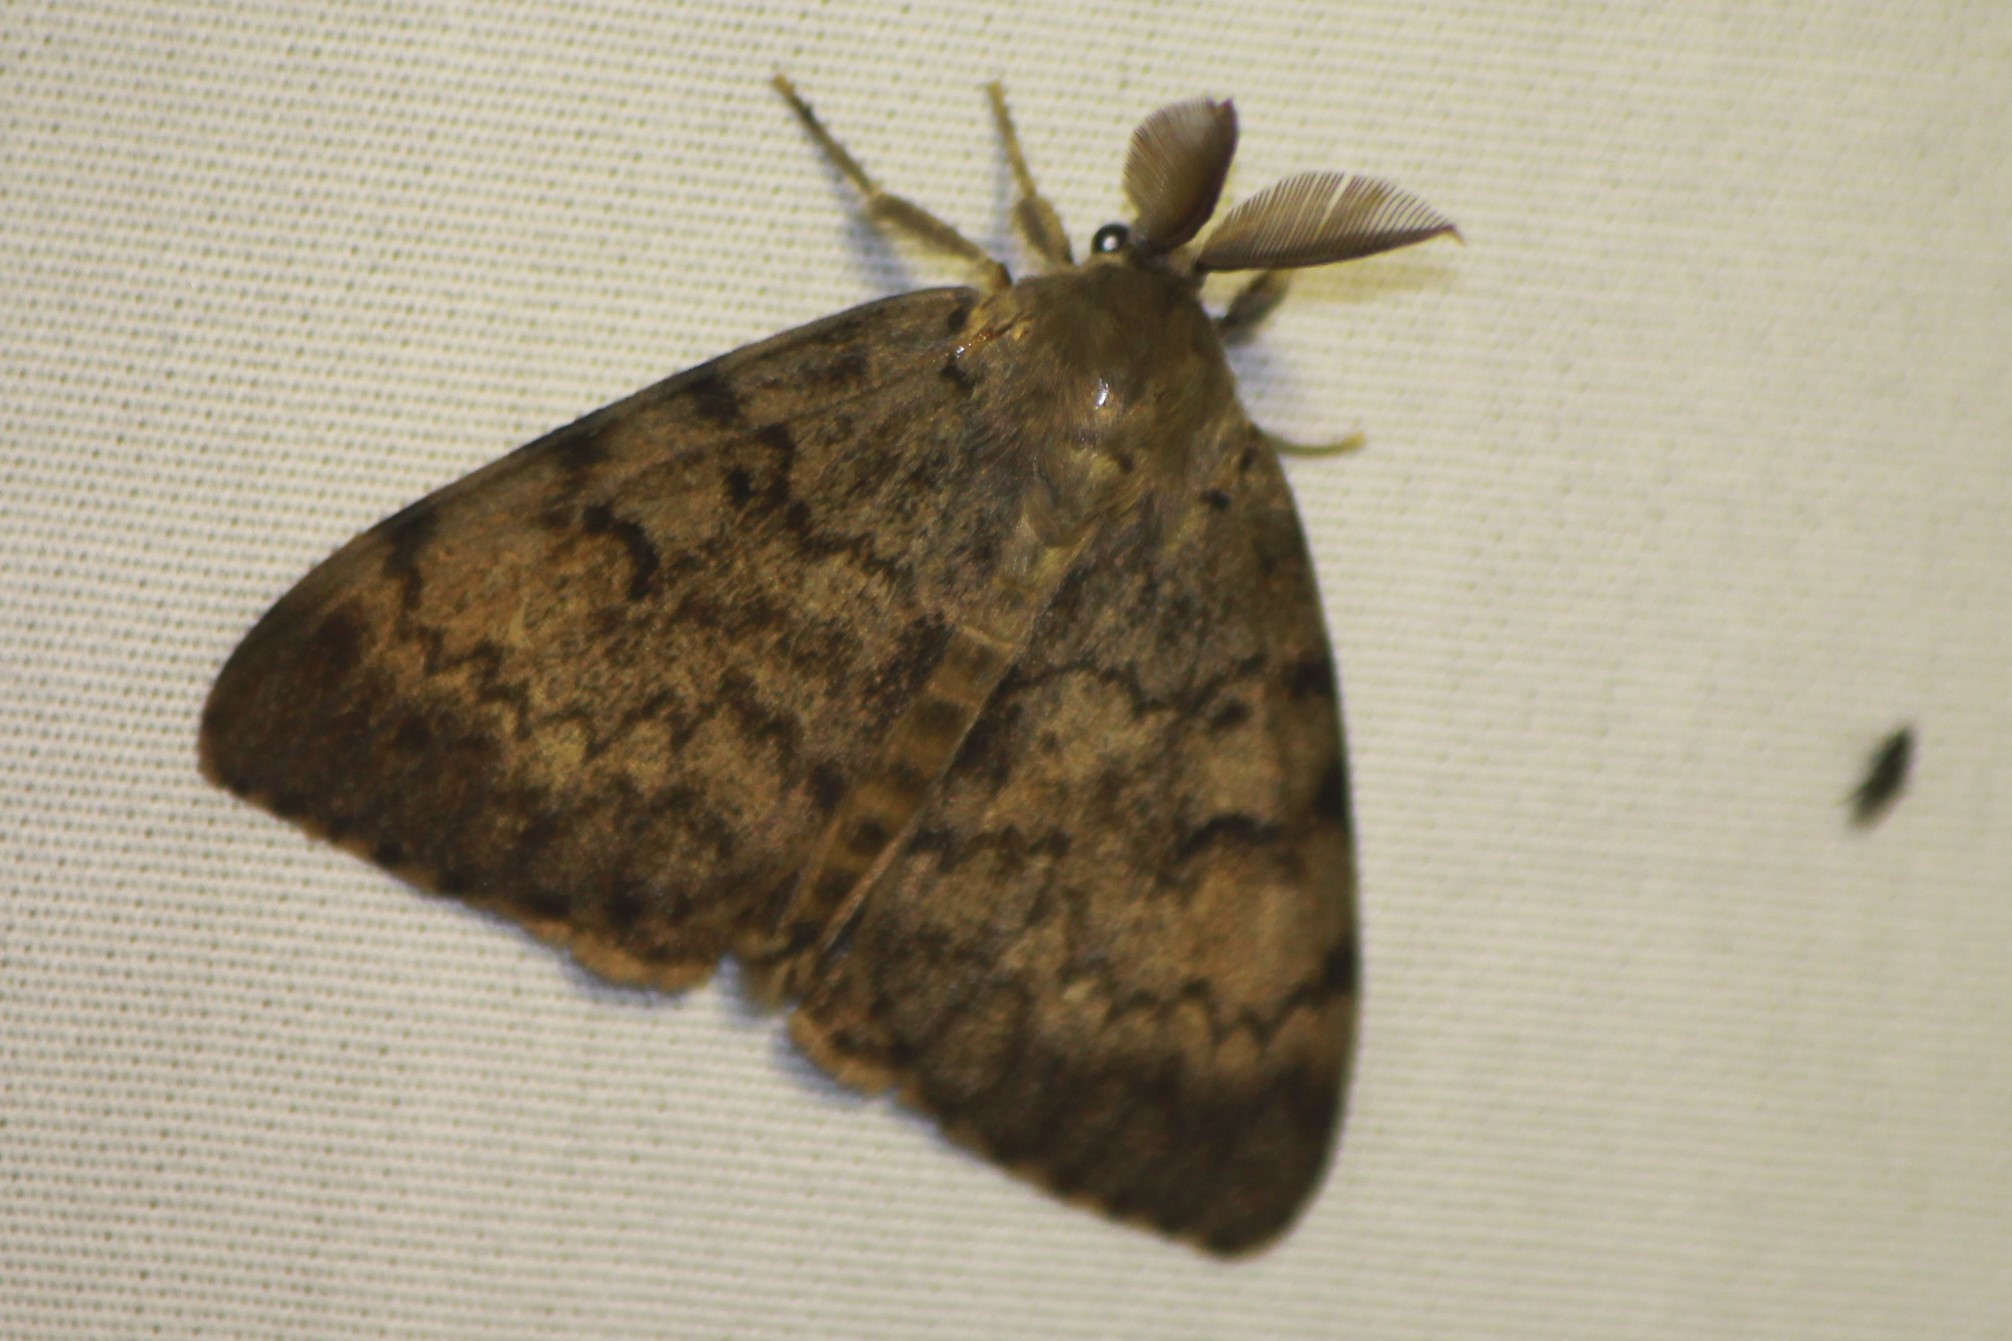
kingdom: Animalia
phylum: Arthropoda
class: Insecta
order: Lepidoptera
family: Erebidae
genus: Lymantria
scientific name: Lymantria dispar
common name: Gypsy moth
